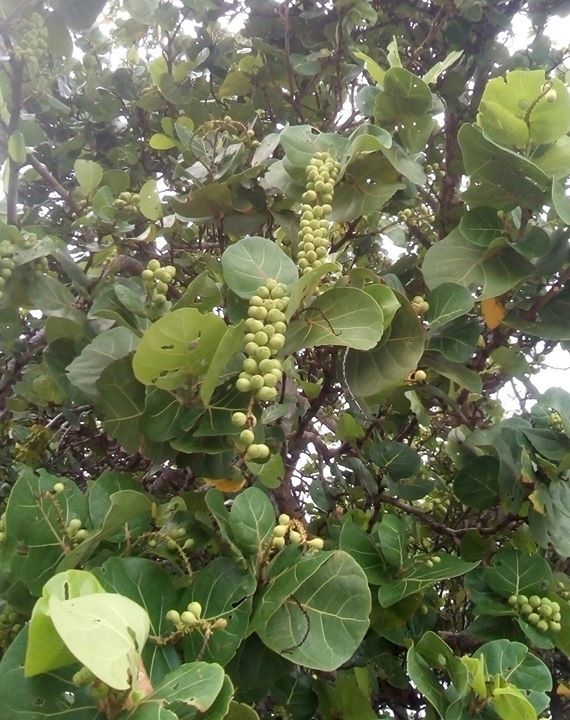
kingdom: Plantae
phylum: Tracheophyta
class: Magnoliopsida
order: Caryophyllales
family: Polygonaceae
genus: Coccoloba
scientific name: Coccoloba uvifera
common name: Seagrape
